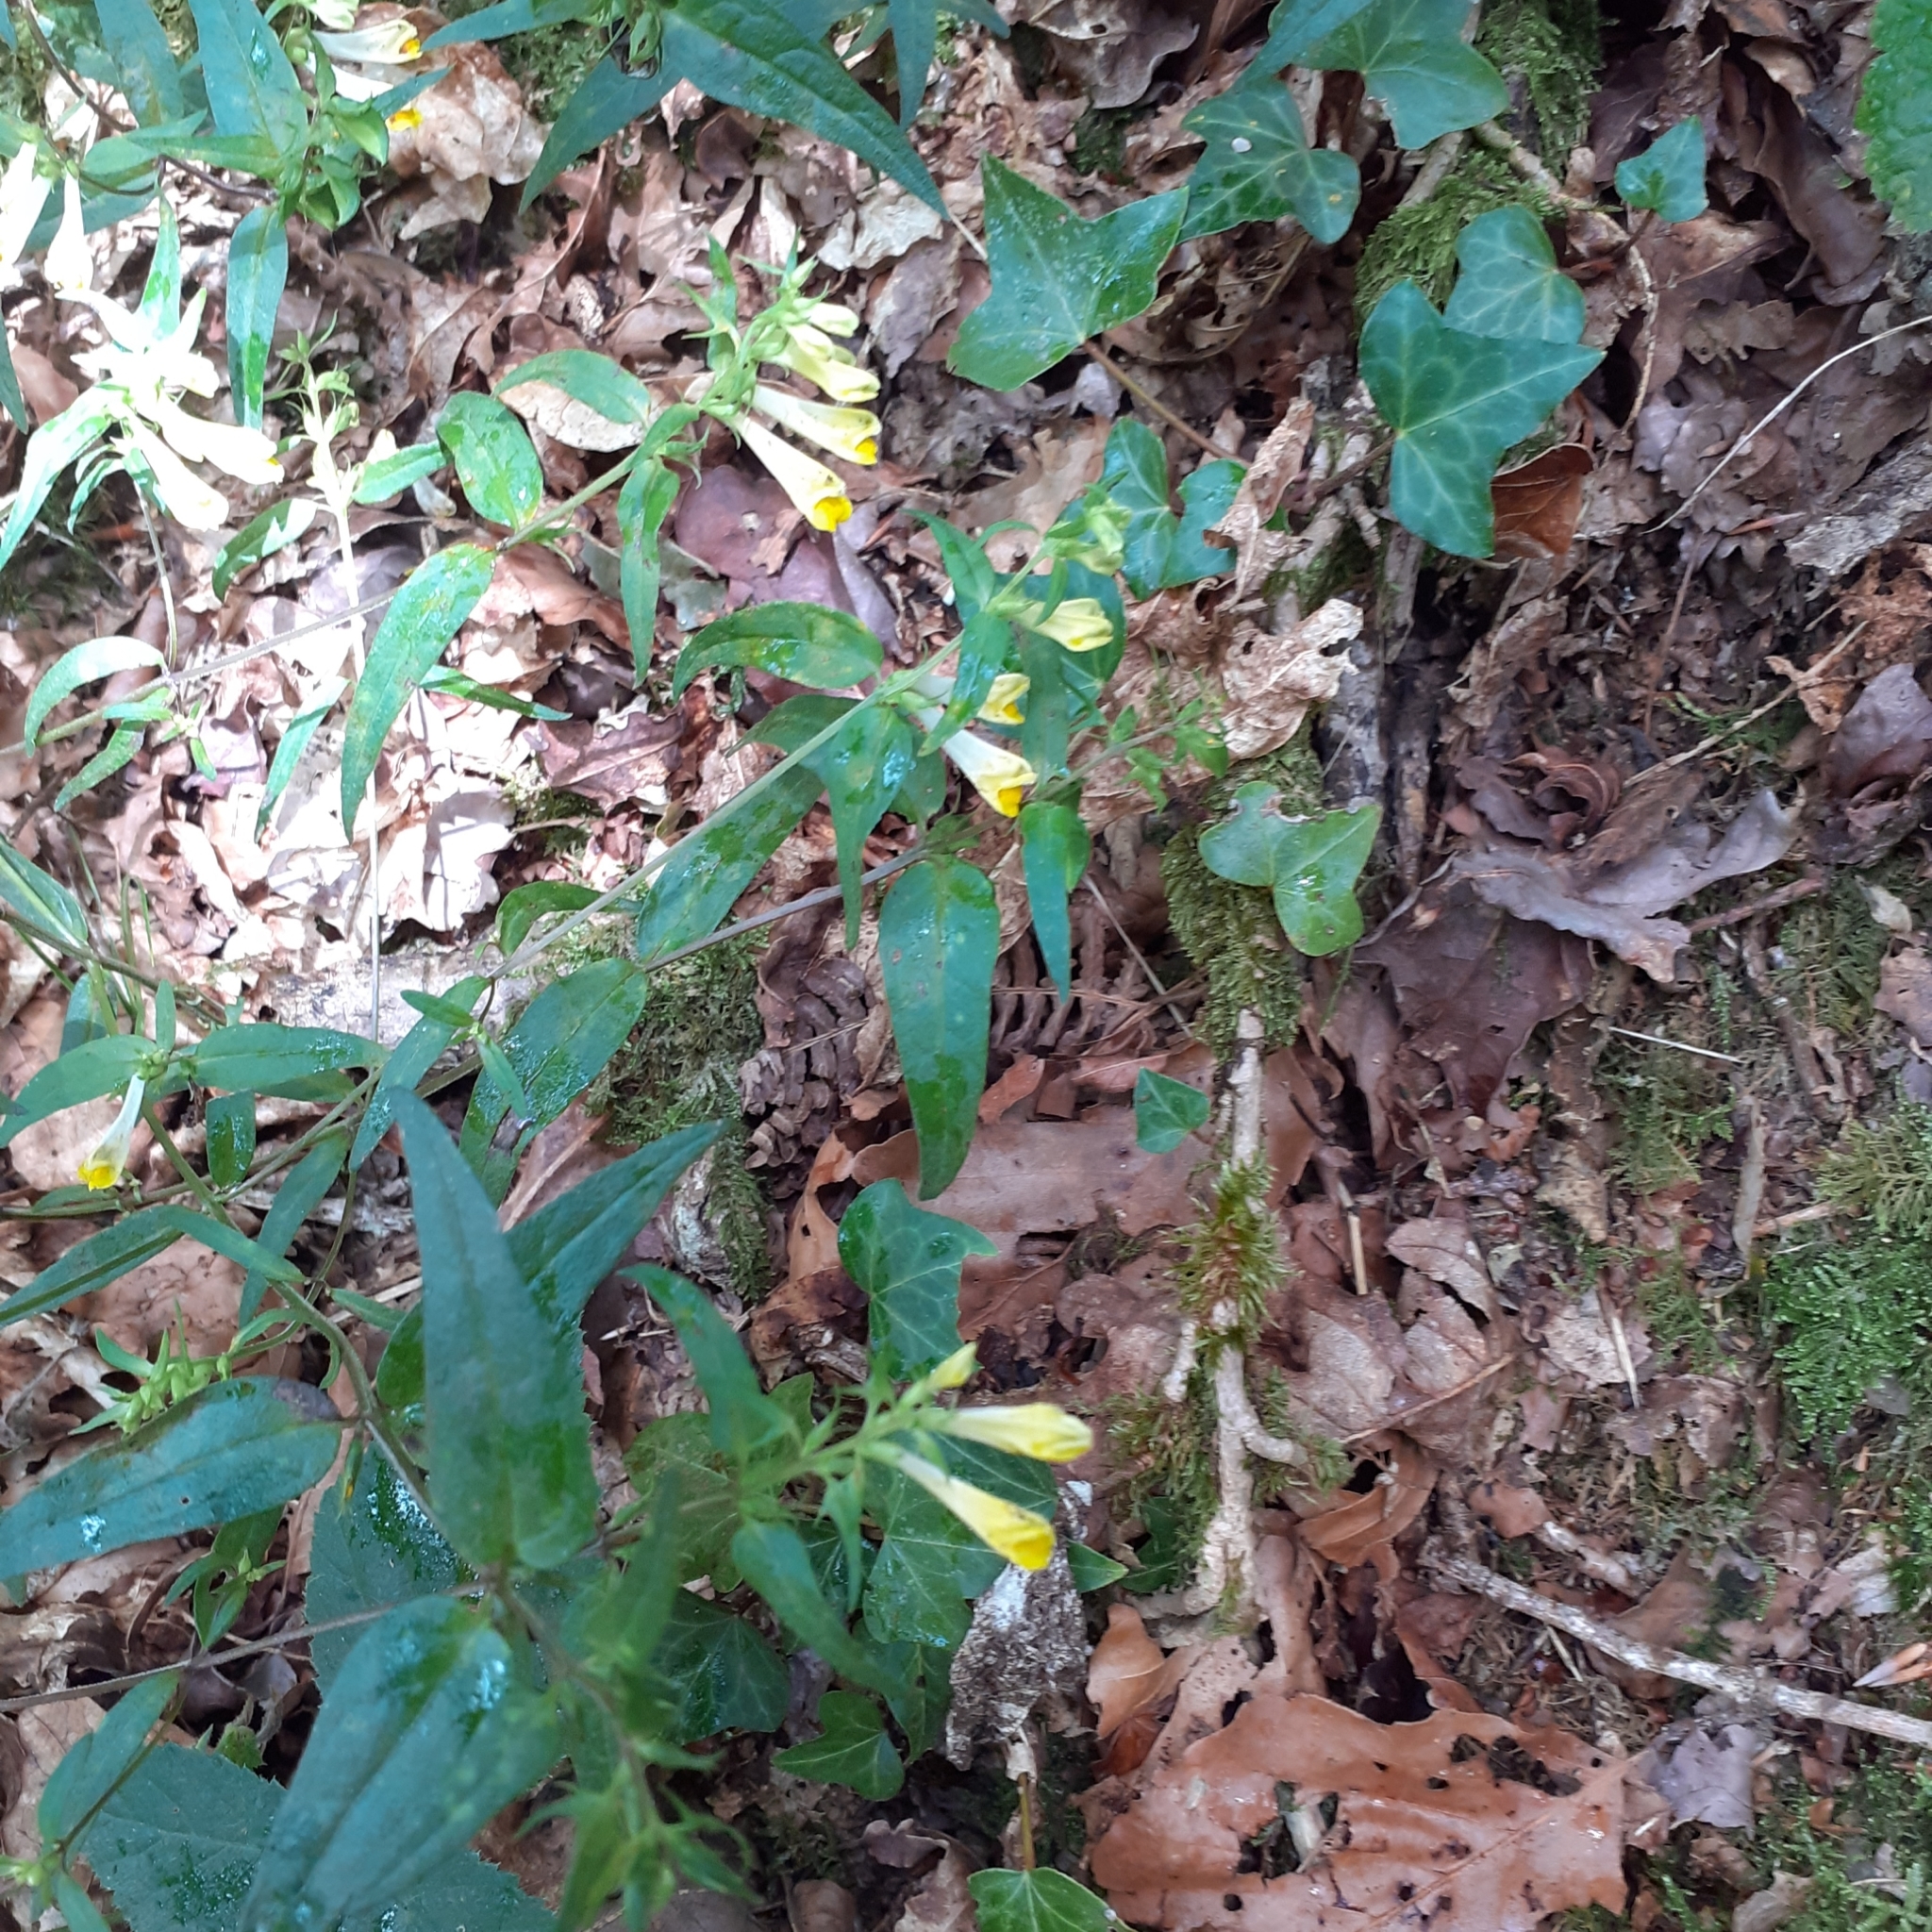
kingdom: Plantae
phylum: Tracheophyta
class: Magnoliopsida
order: Lamiales
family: Orobanchaceae
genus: Melampyrum
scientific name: Melampyrum pratense
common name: Common cow-wheat
